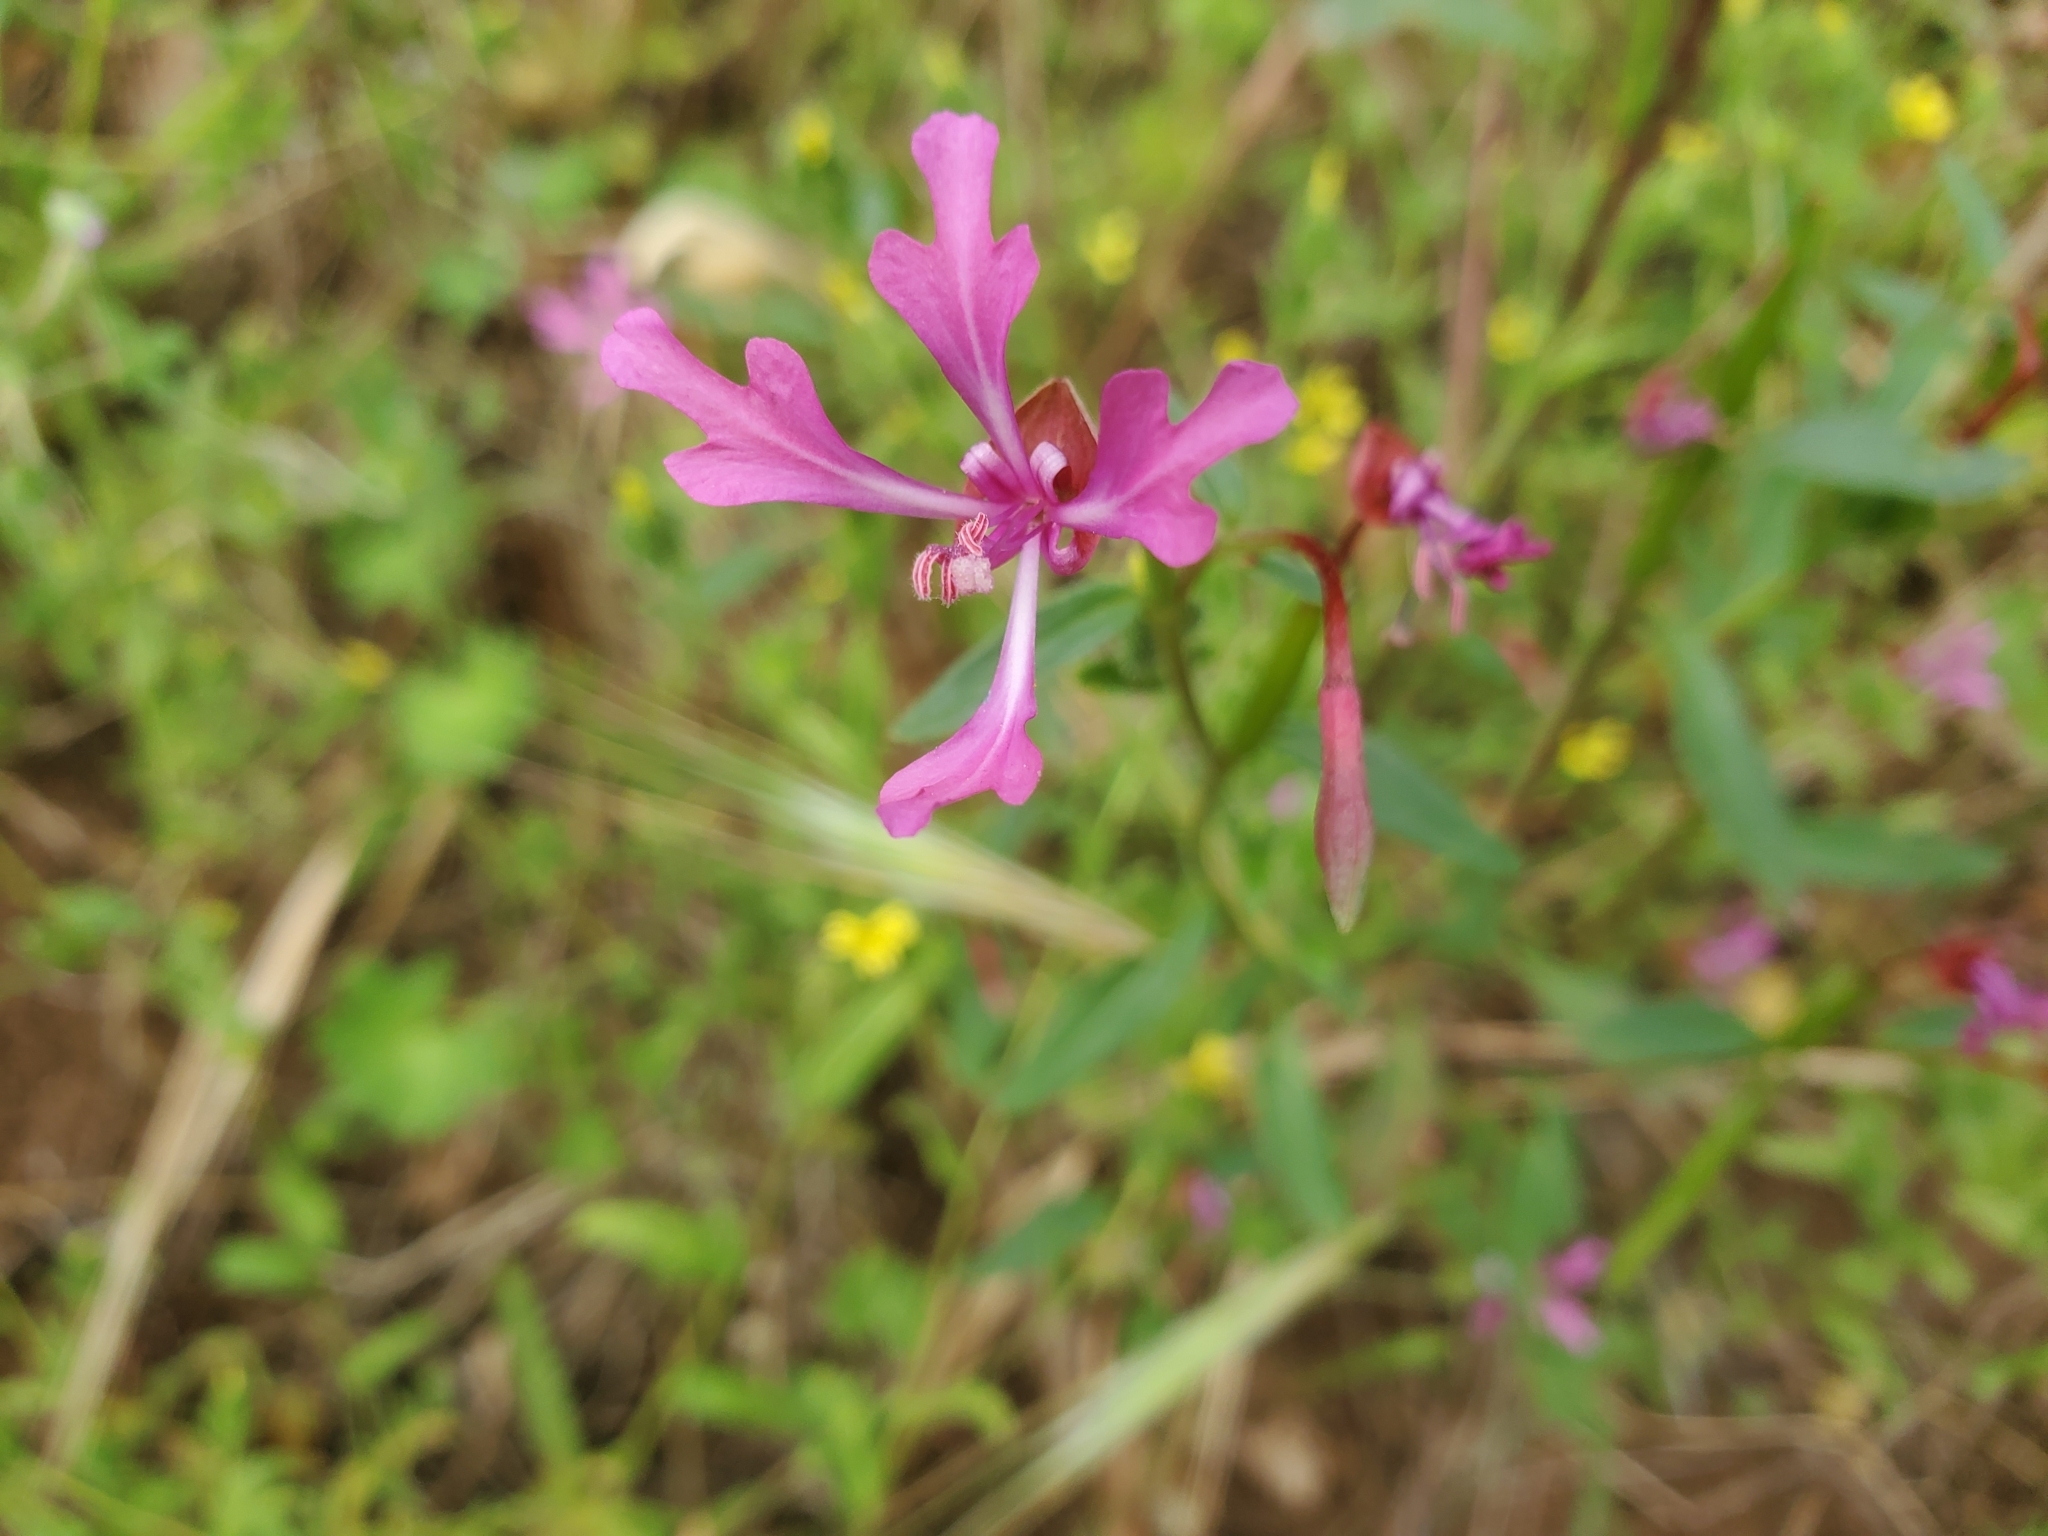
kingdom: Plantae
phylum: Tracheophyta
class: Magnoliopsida
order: Myrtales
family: Onagraceae
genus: Clarkia
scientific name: Clarkia concinna
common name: Red-ribbons
